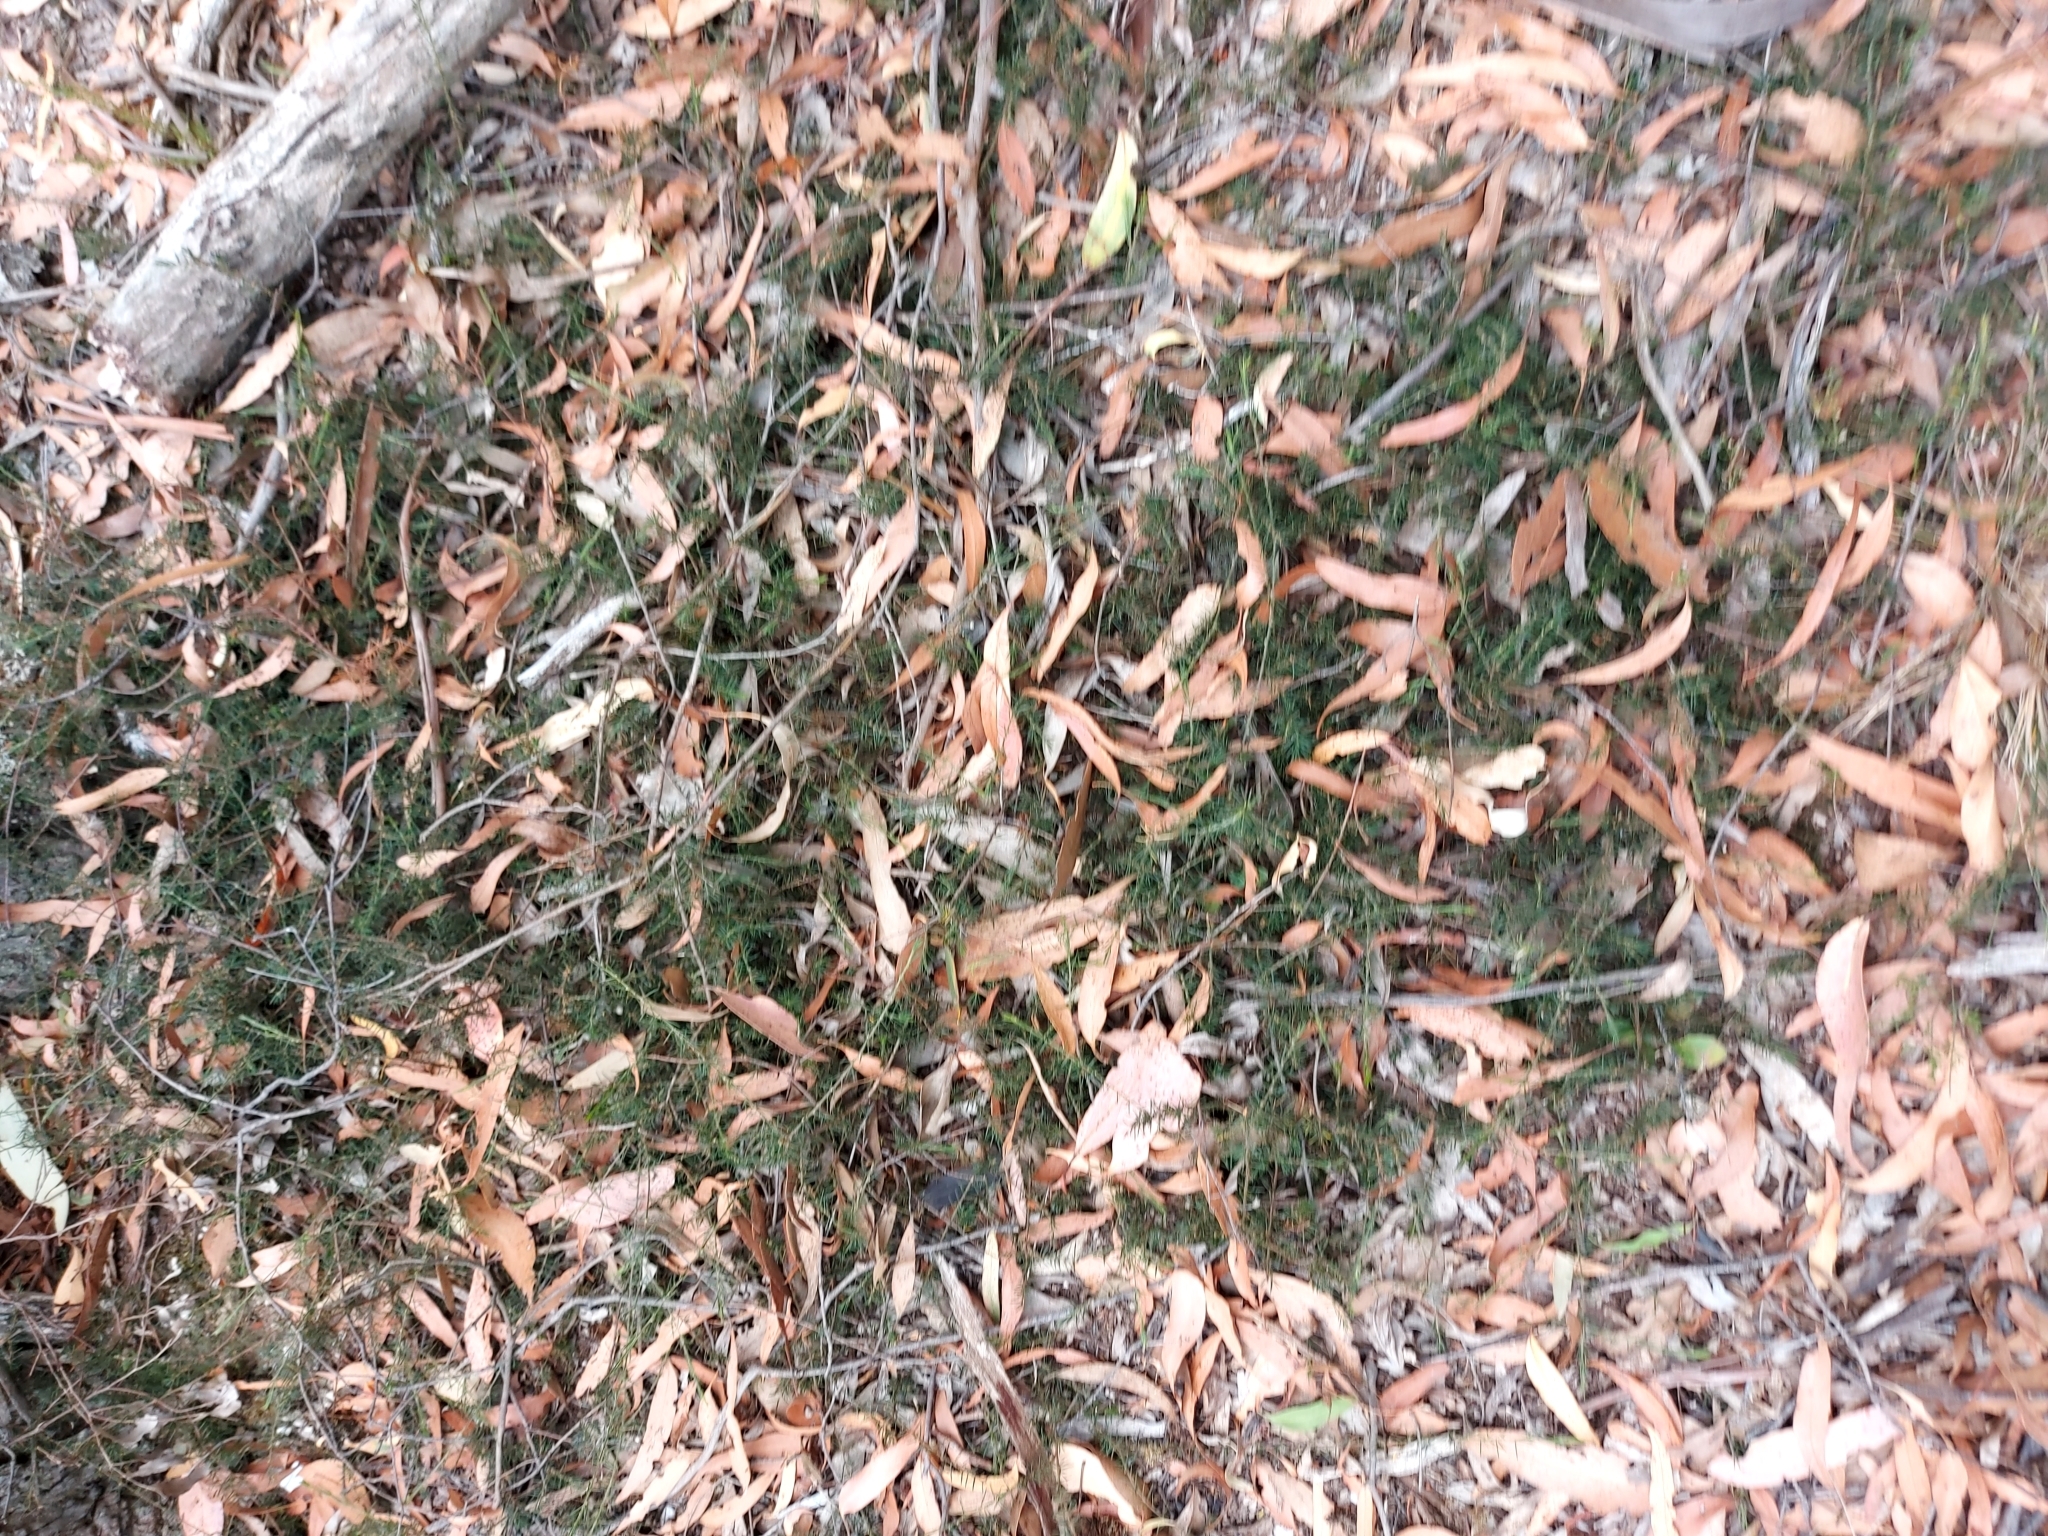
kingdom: Plantae
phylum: Tracheophyta
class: Magnoliopsida
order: Fabales
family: Fabaceae
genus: Acacia
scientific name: Acacia aculeatissima
